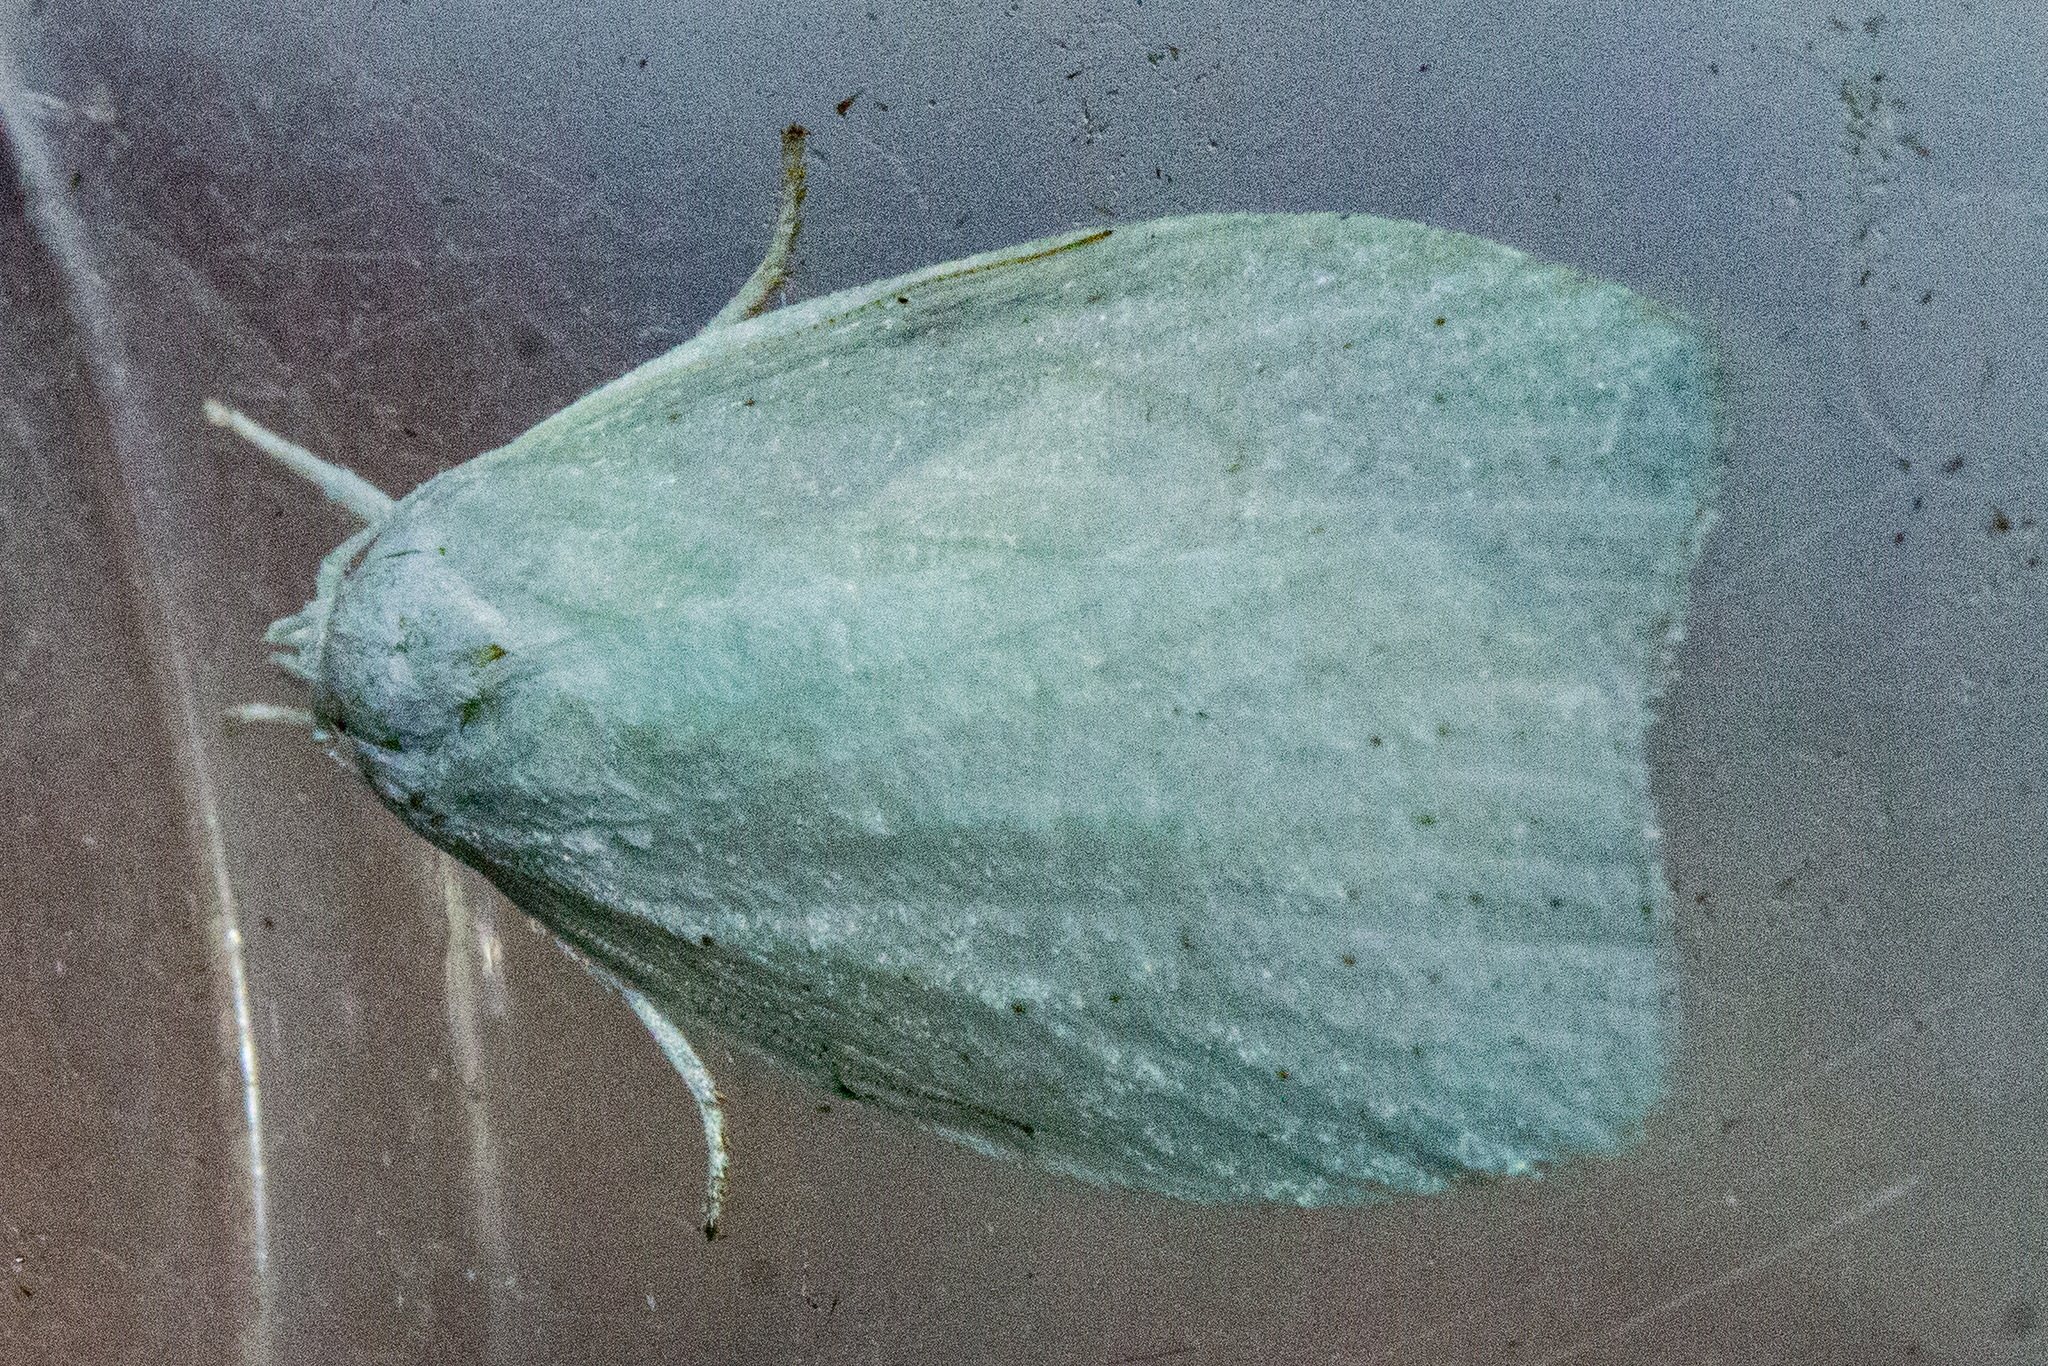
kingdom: Animalia
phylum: Arthropoda
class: Insecta
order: Lepidoptera
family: Oecophoridae
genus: Nymphostola
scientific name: Nymphostola galactina
